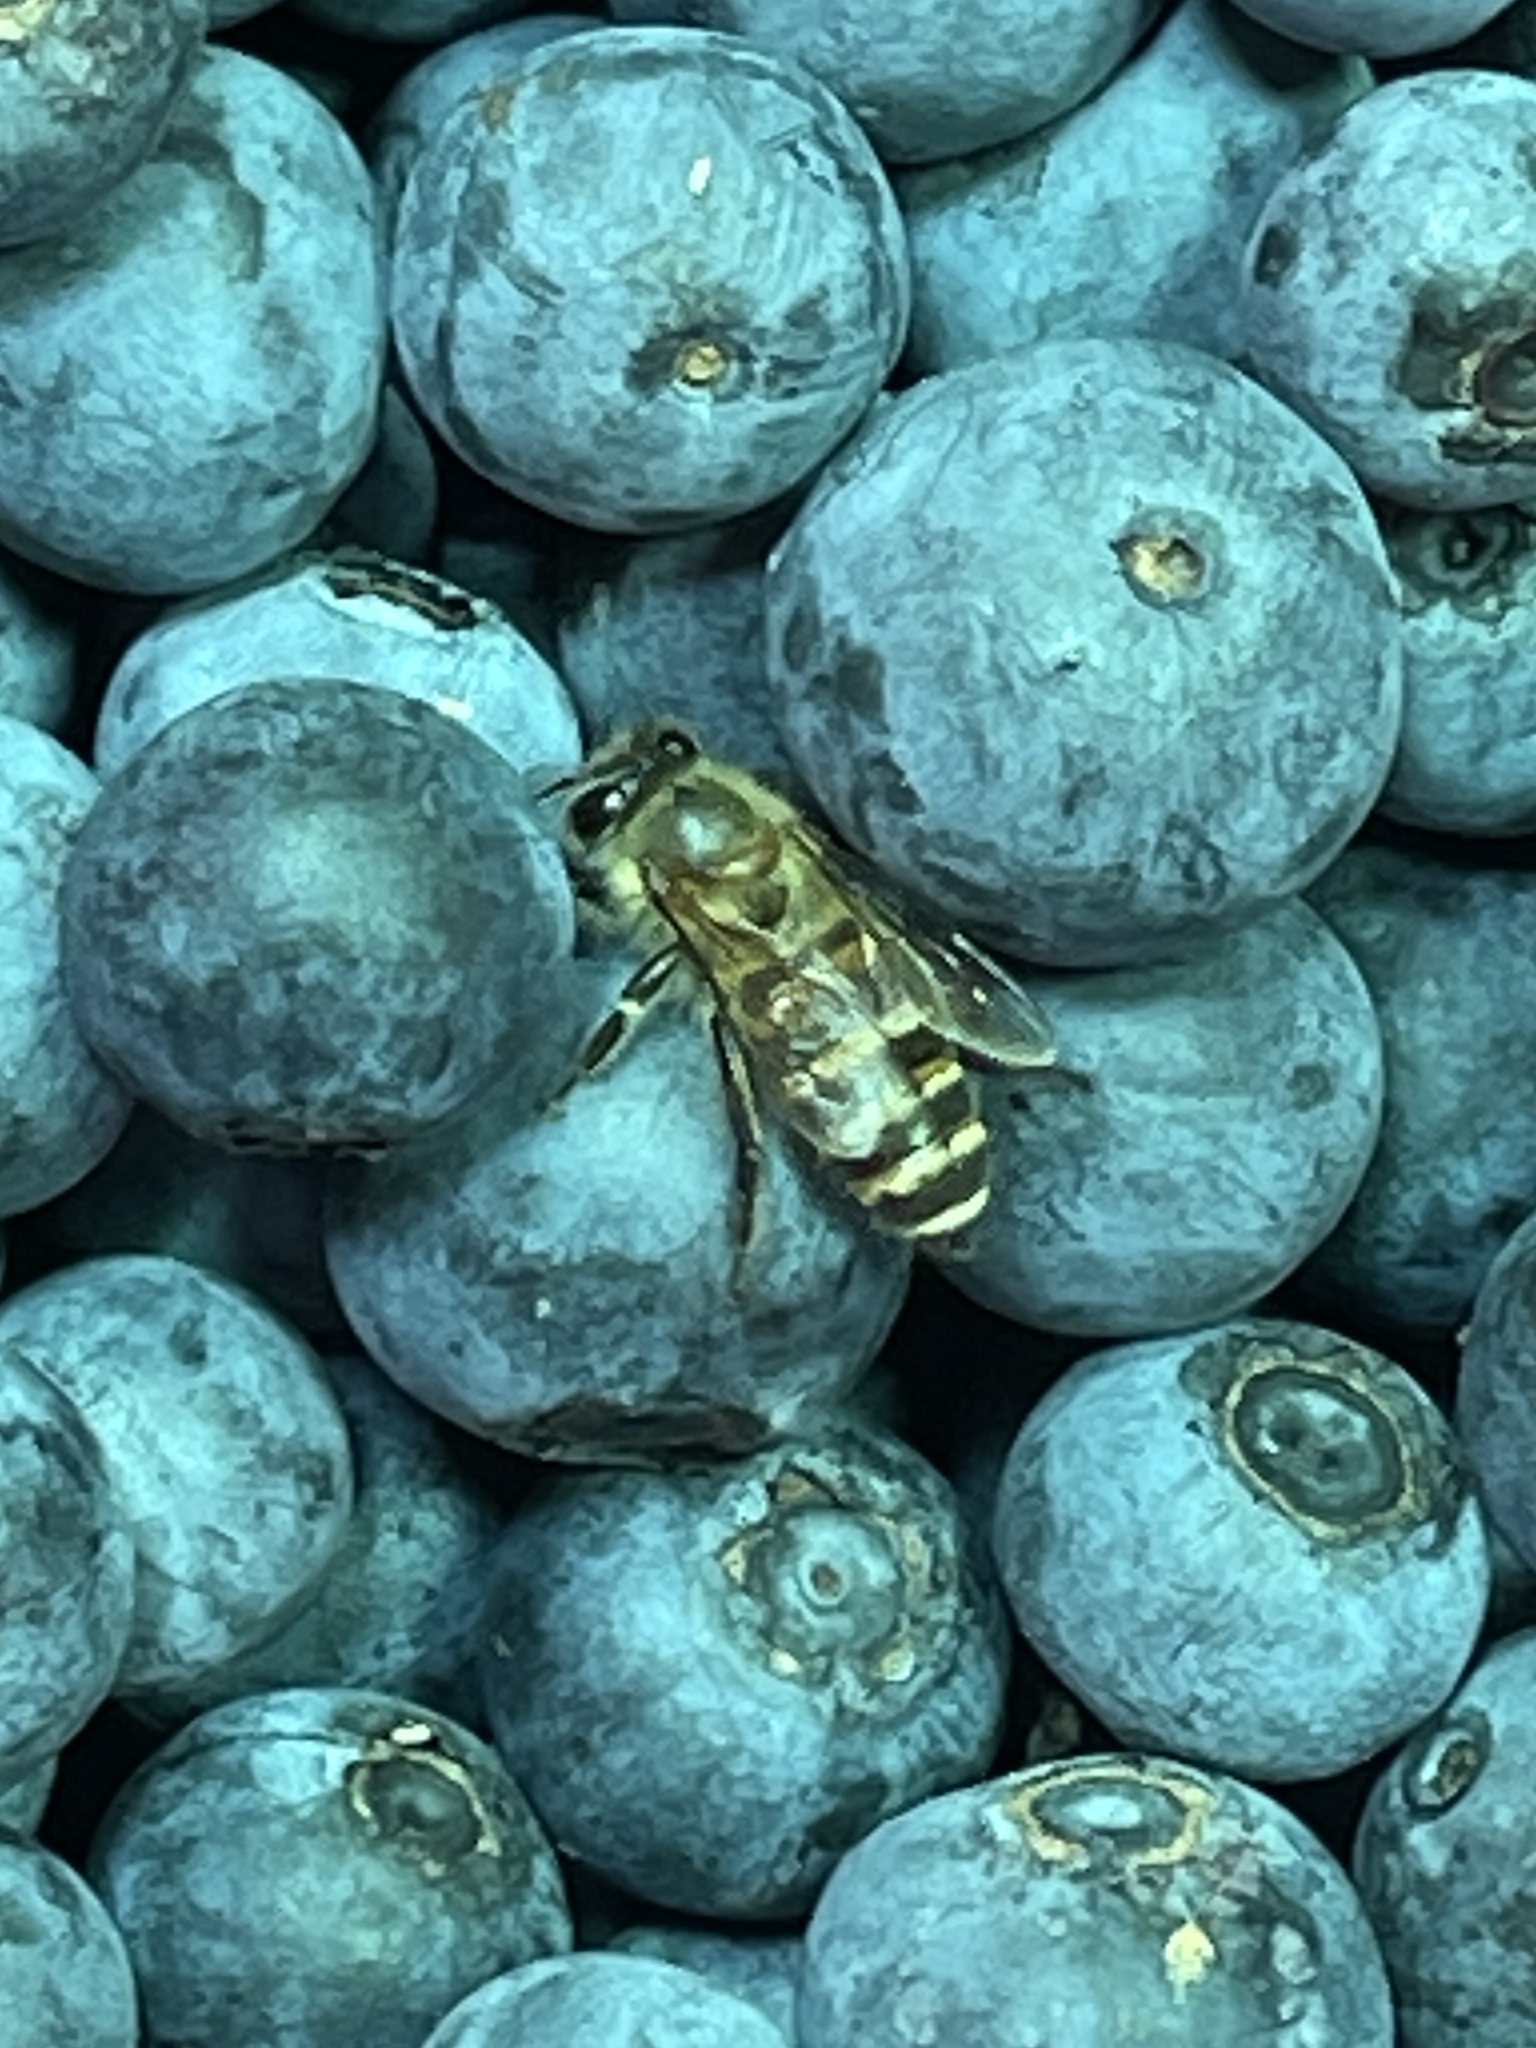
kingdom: Animalia
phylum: Arthropoda
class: Insecta
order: Hymenoptera
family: Apidae
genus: Apis
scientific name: Apis cerana
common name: Honey bee
